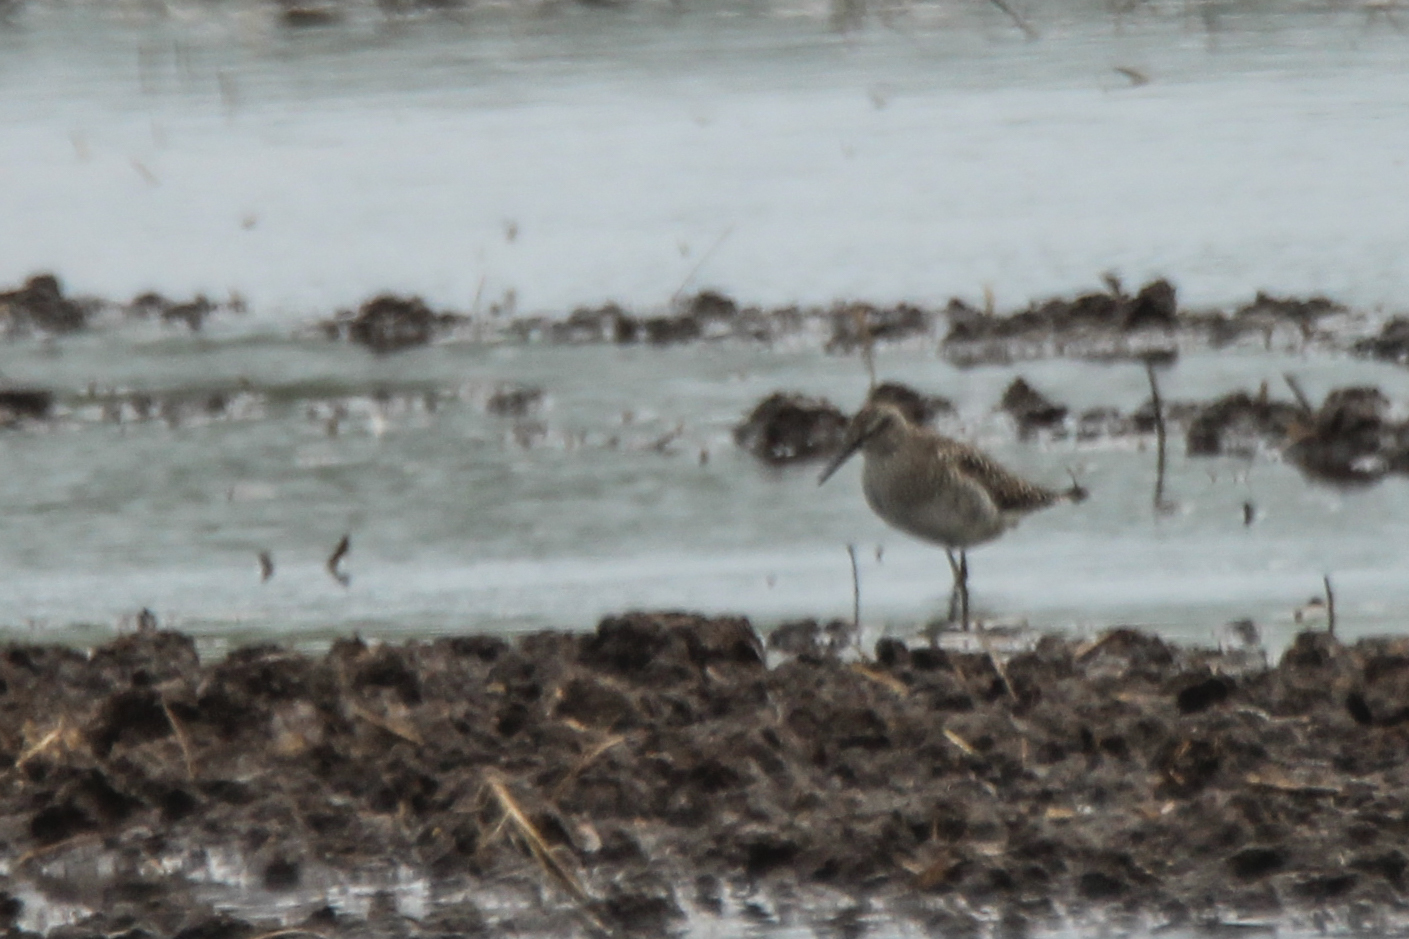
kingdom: Animalia
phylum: Chordata
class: Aves
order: Charadriiformes
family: Scolopacidae
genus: Tringa
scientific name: Tringa glareola
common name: Wood sandpiper
